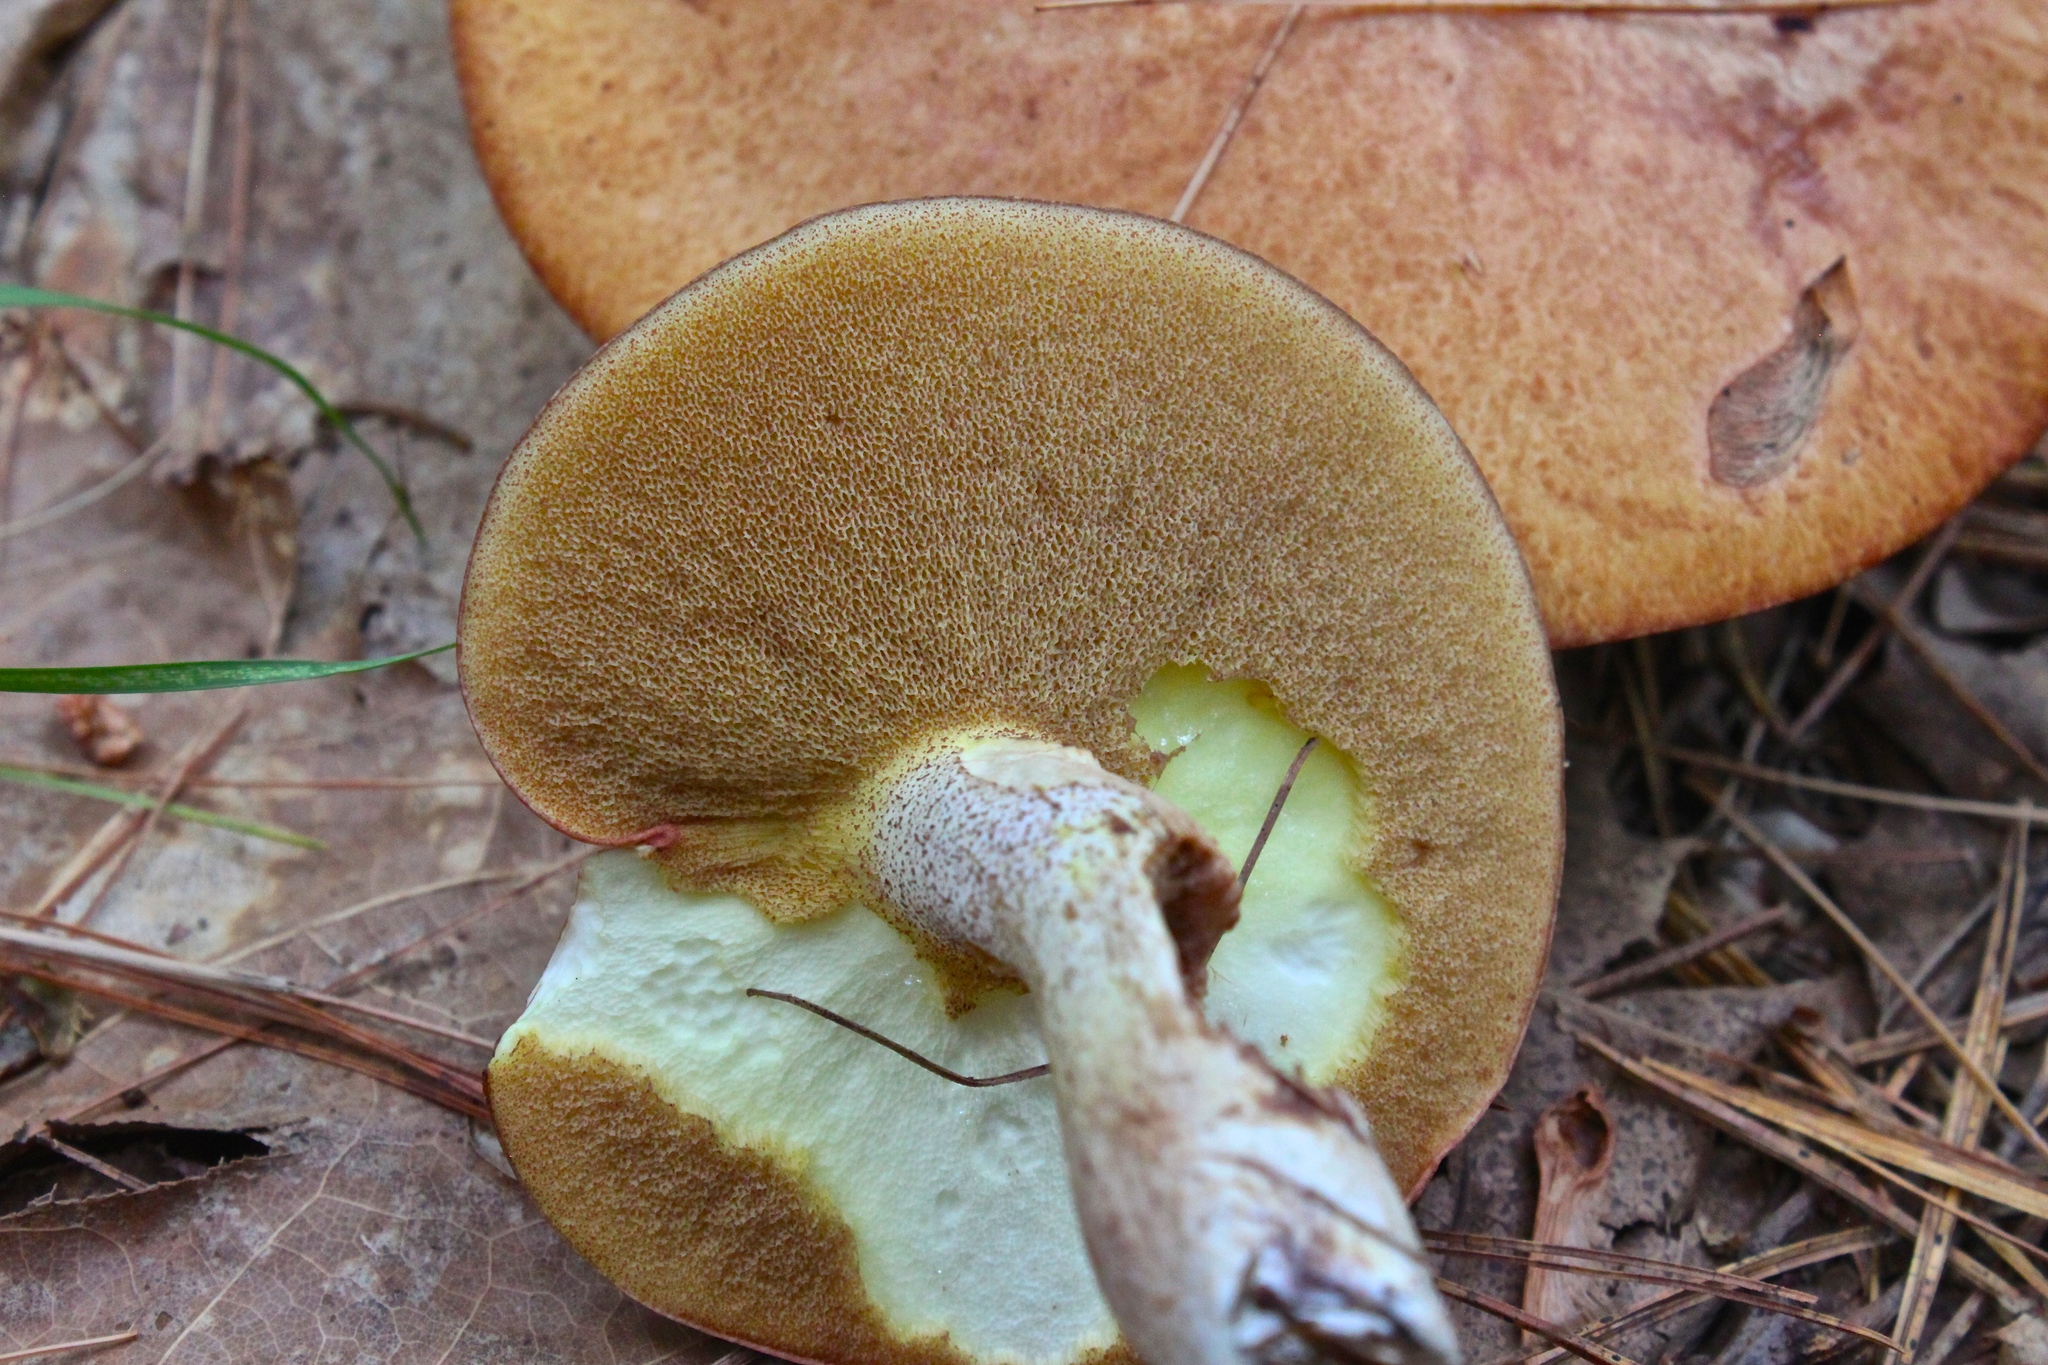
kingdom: Fungi
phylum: Basidiomycota
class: Agaricomycetes
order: Boletales
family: Suillaceae
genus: Suillus
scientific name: Suillus granulatus
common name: Weeping bolete
